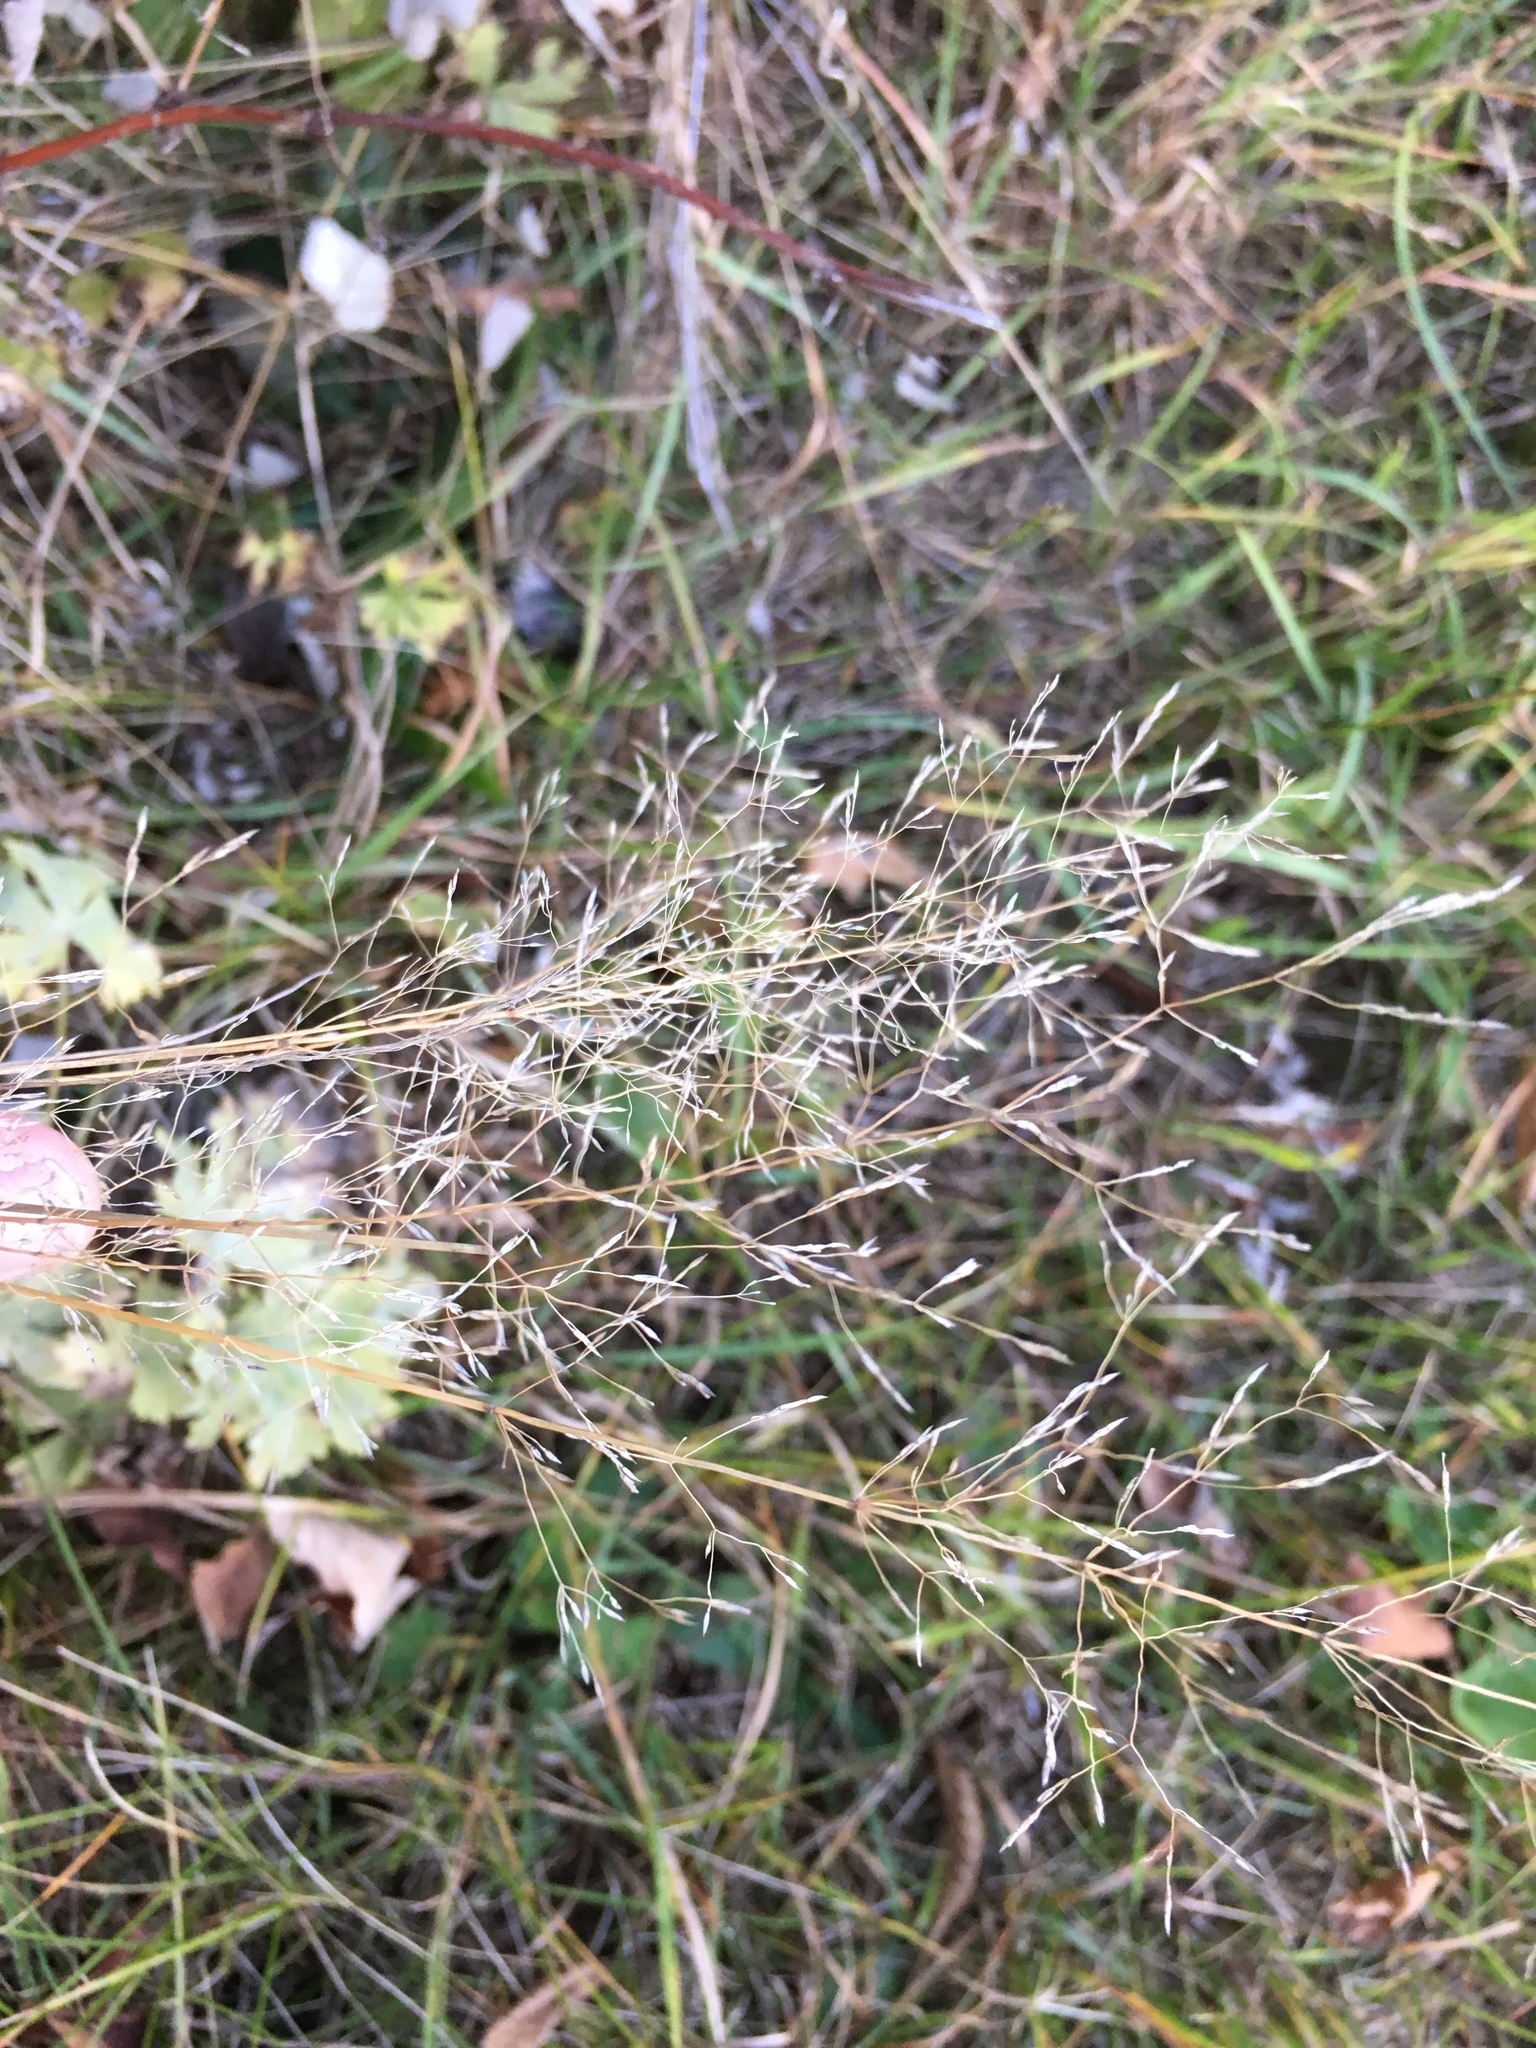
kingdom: Plantae
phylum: Tracheophyta
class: Liliopsida
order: Poales
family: Poaceae
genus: Agrostis
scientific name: Agrostis capillaris
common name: Colonial bentgrass
